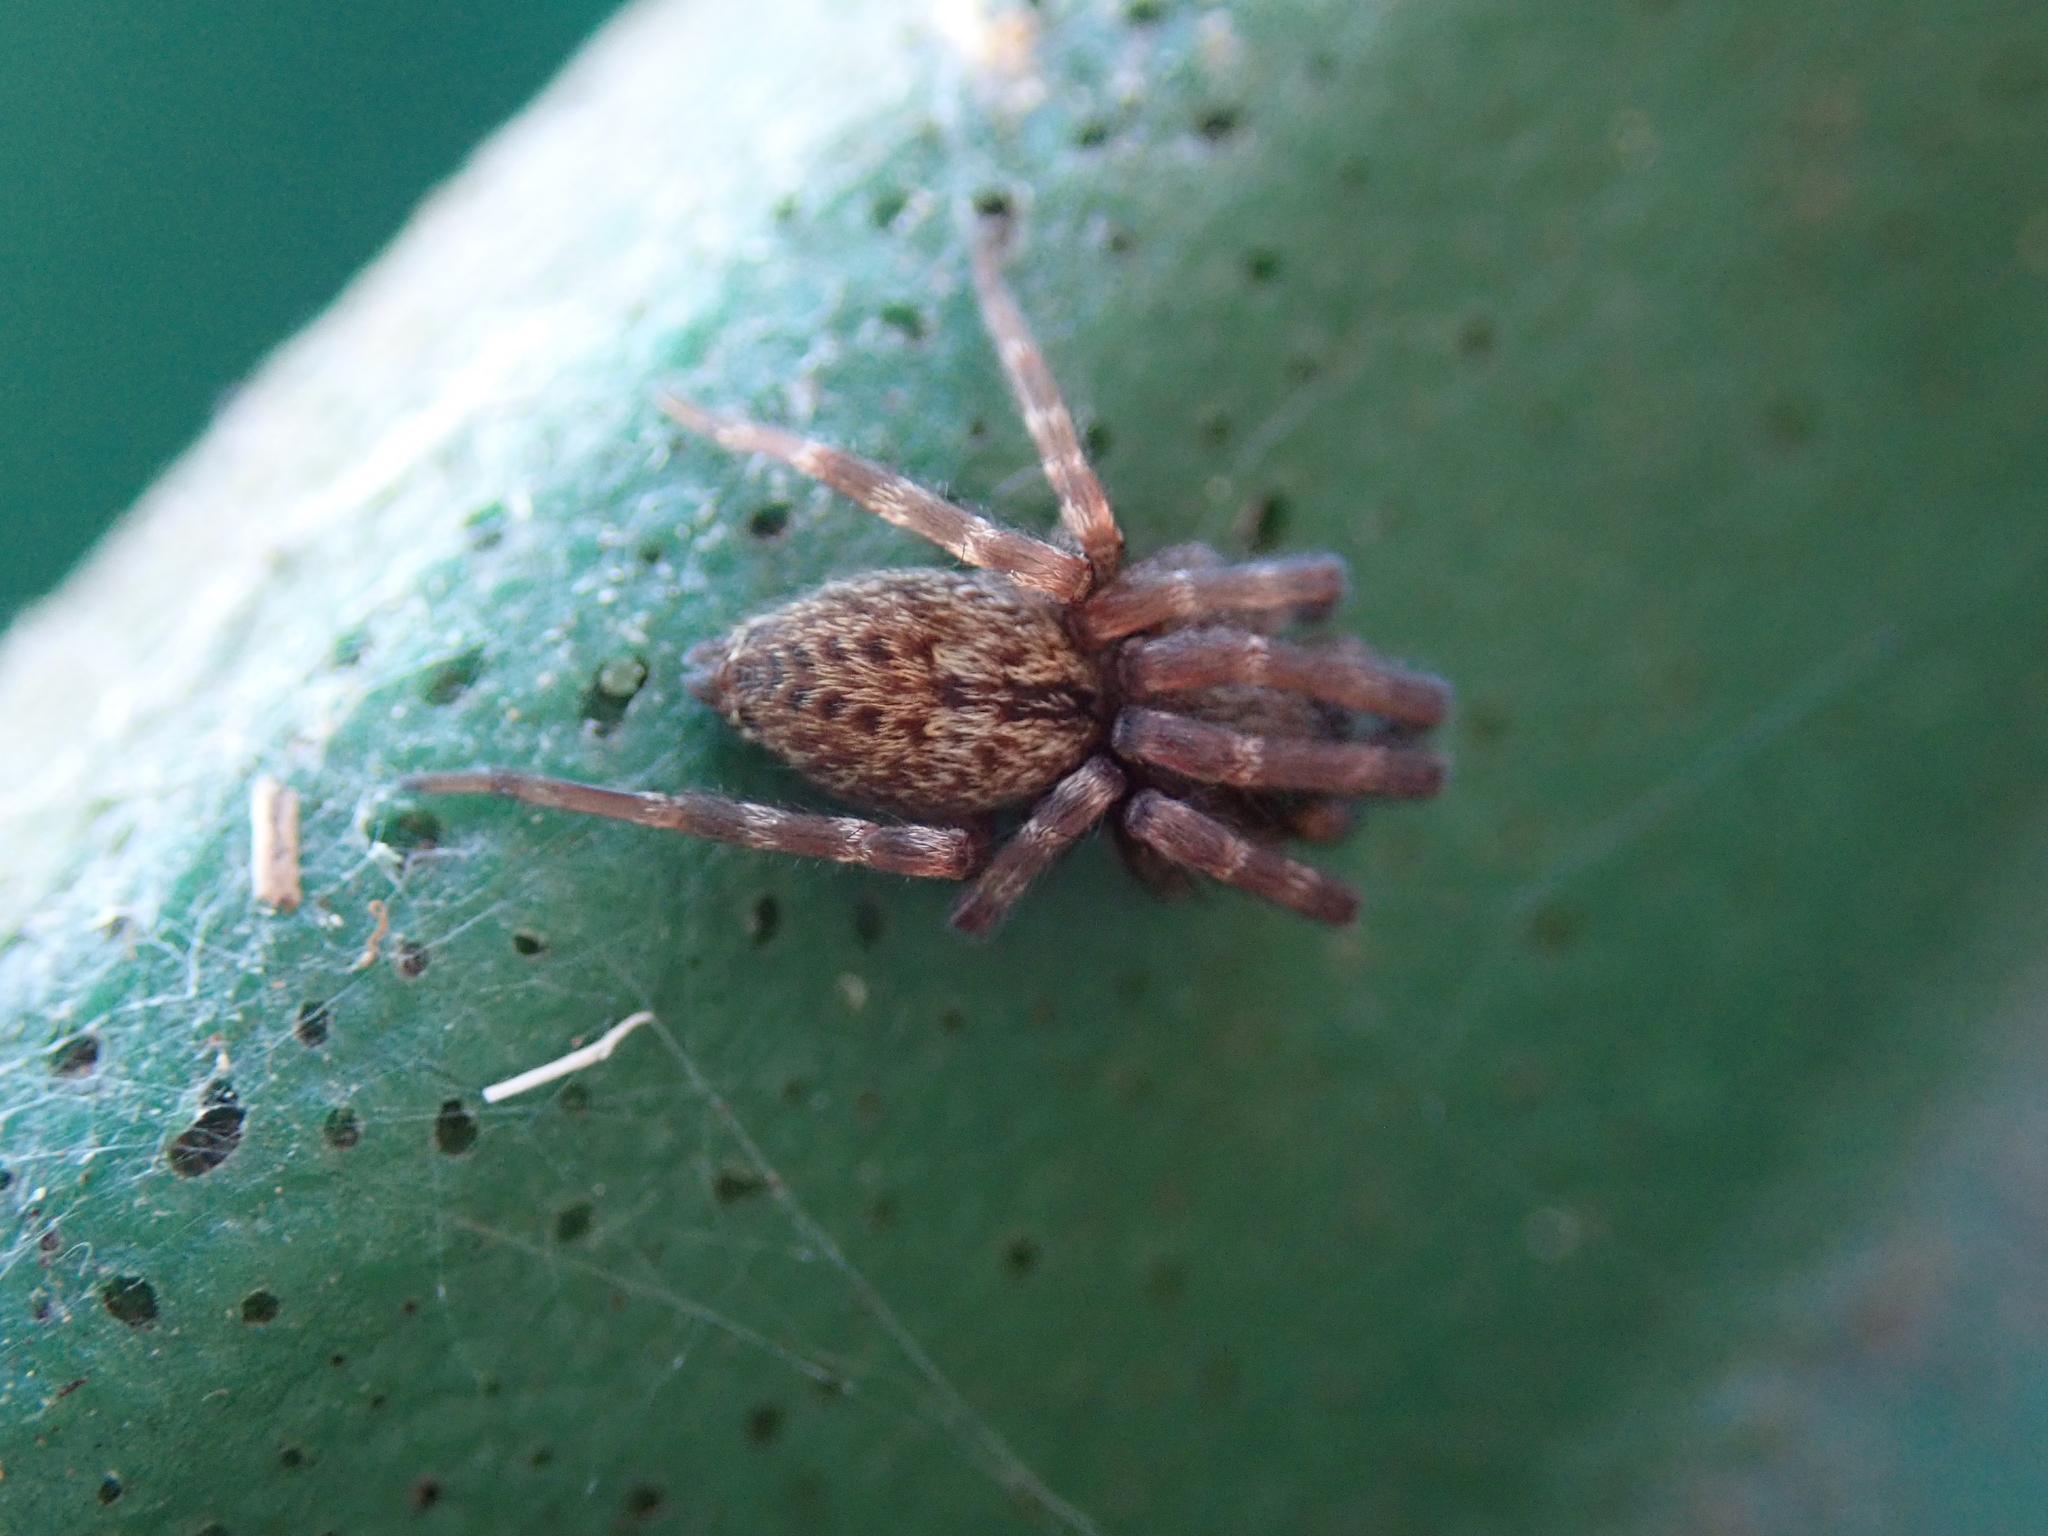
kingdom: Animalia
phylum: Arthropoda
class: Arachnida
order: Araneae
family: Desidae
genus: Badumna
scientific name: Badumna longinqua
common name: Gray house spider
